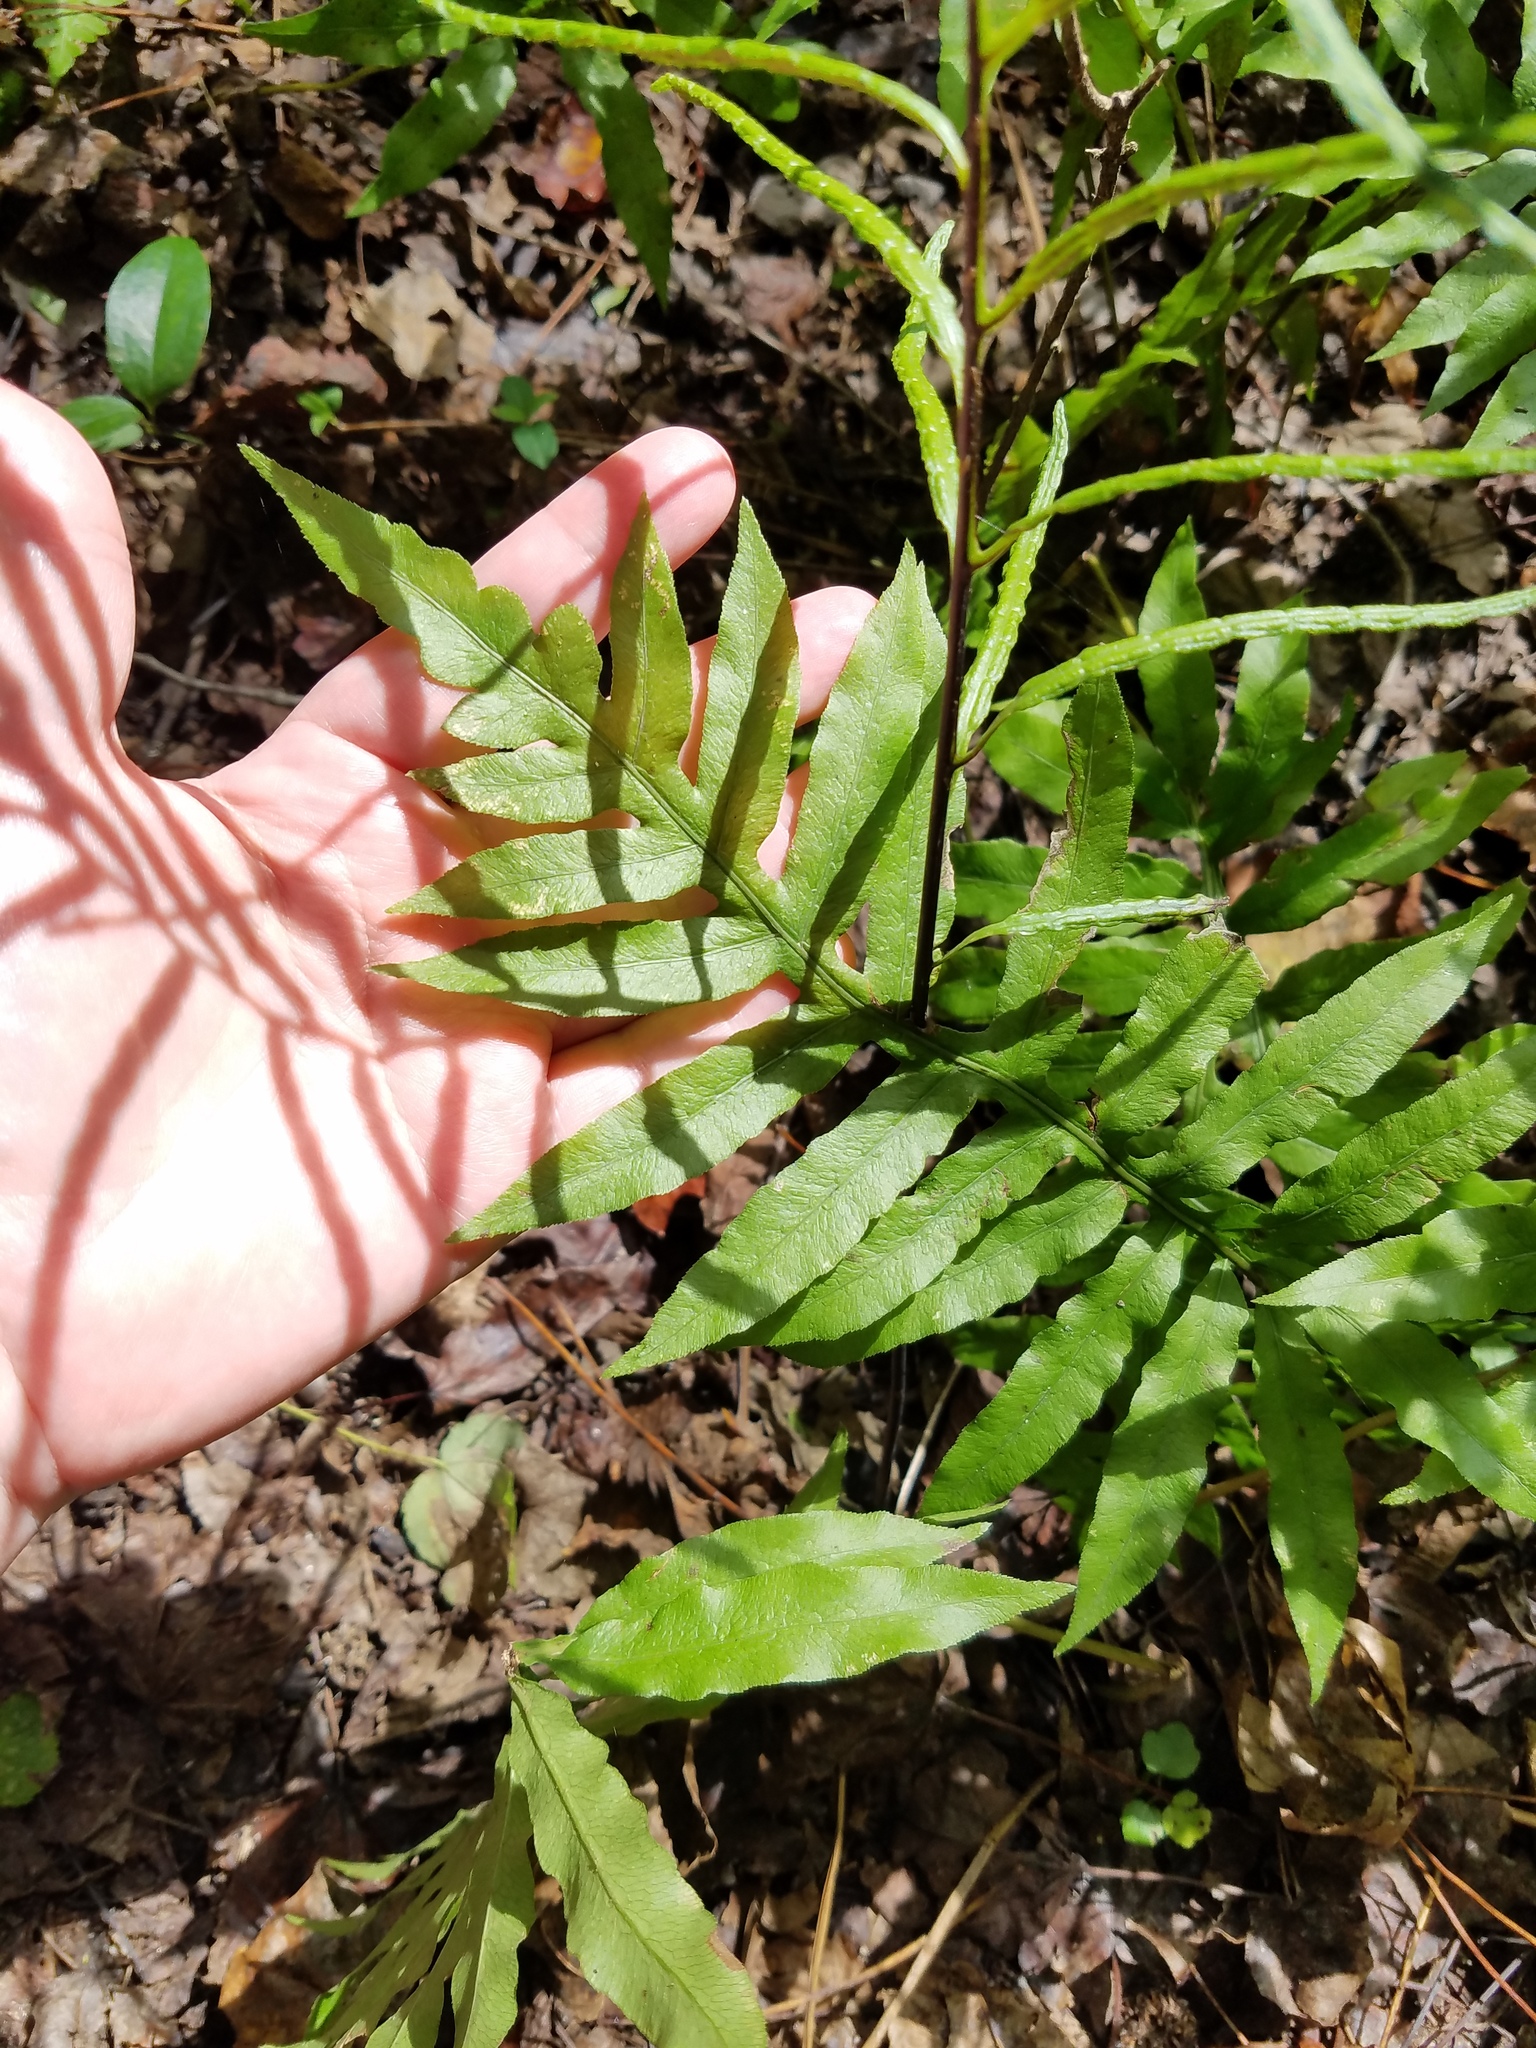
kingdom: Plantae
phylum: Tracheophyta
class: Polypodiopsida
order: Polypodiales
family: Blechnaceae
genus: Lorinseria
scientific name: Lorinseria areolata
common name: Dwarf chain fern
